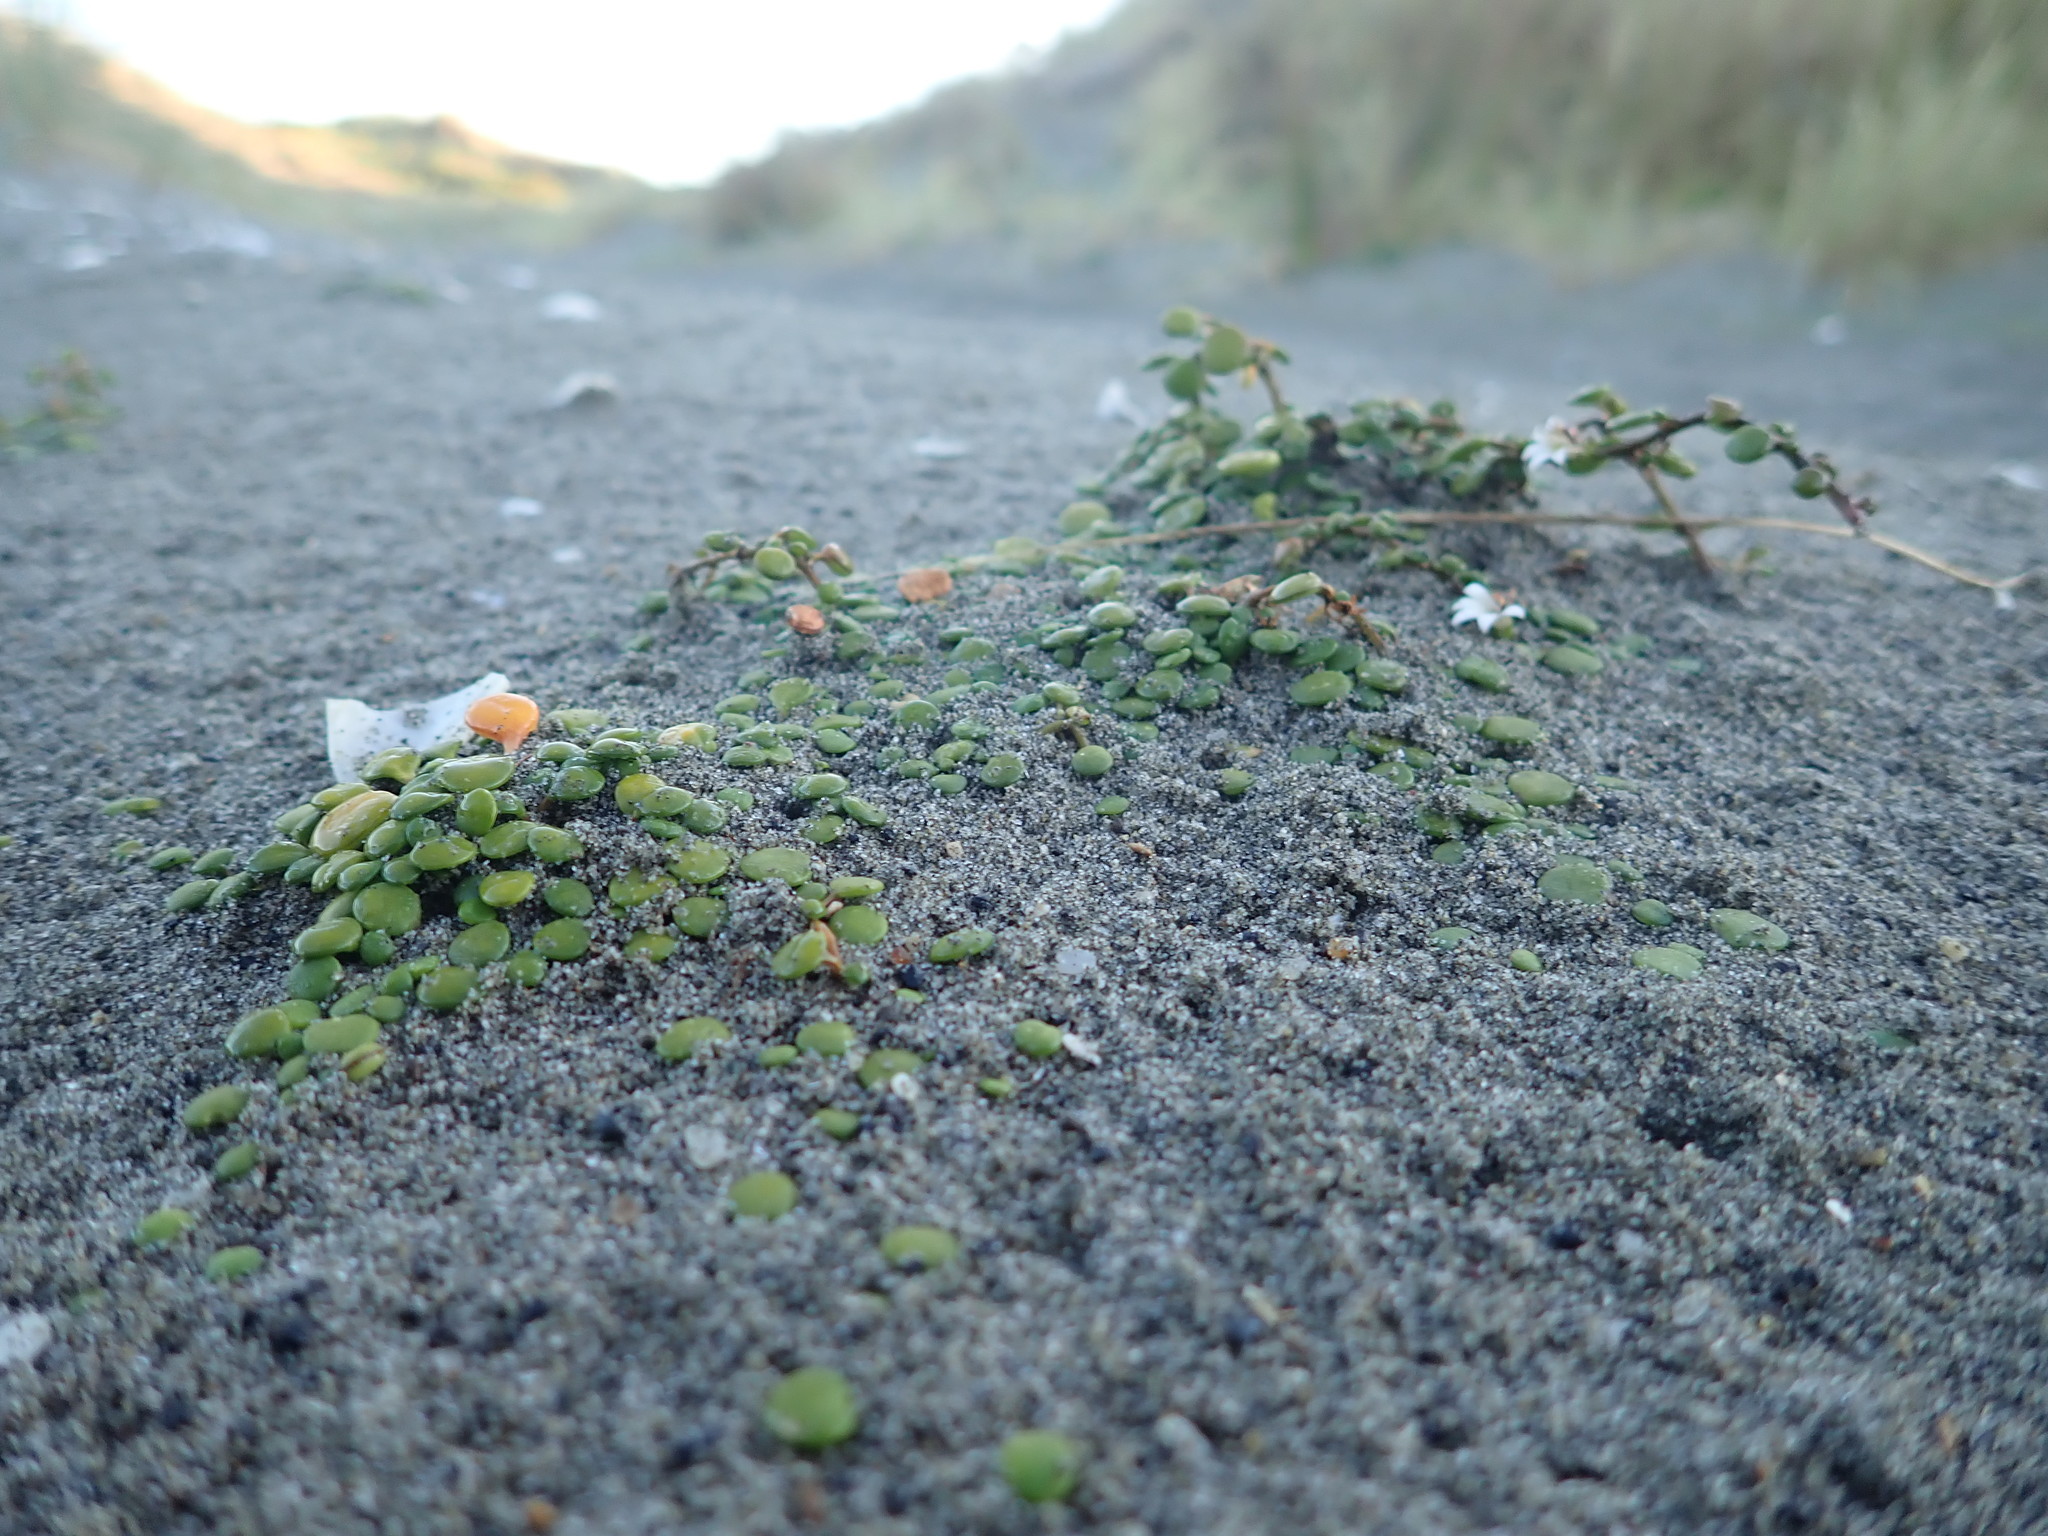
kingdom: Plantae
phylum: Tracheophyta
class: Magnoliopsida
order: Asterales
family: Goodeniaceae
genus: Goodenia
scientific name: Goodenia heenanii
